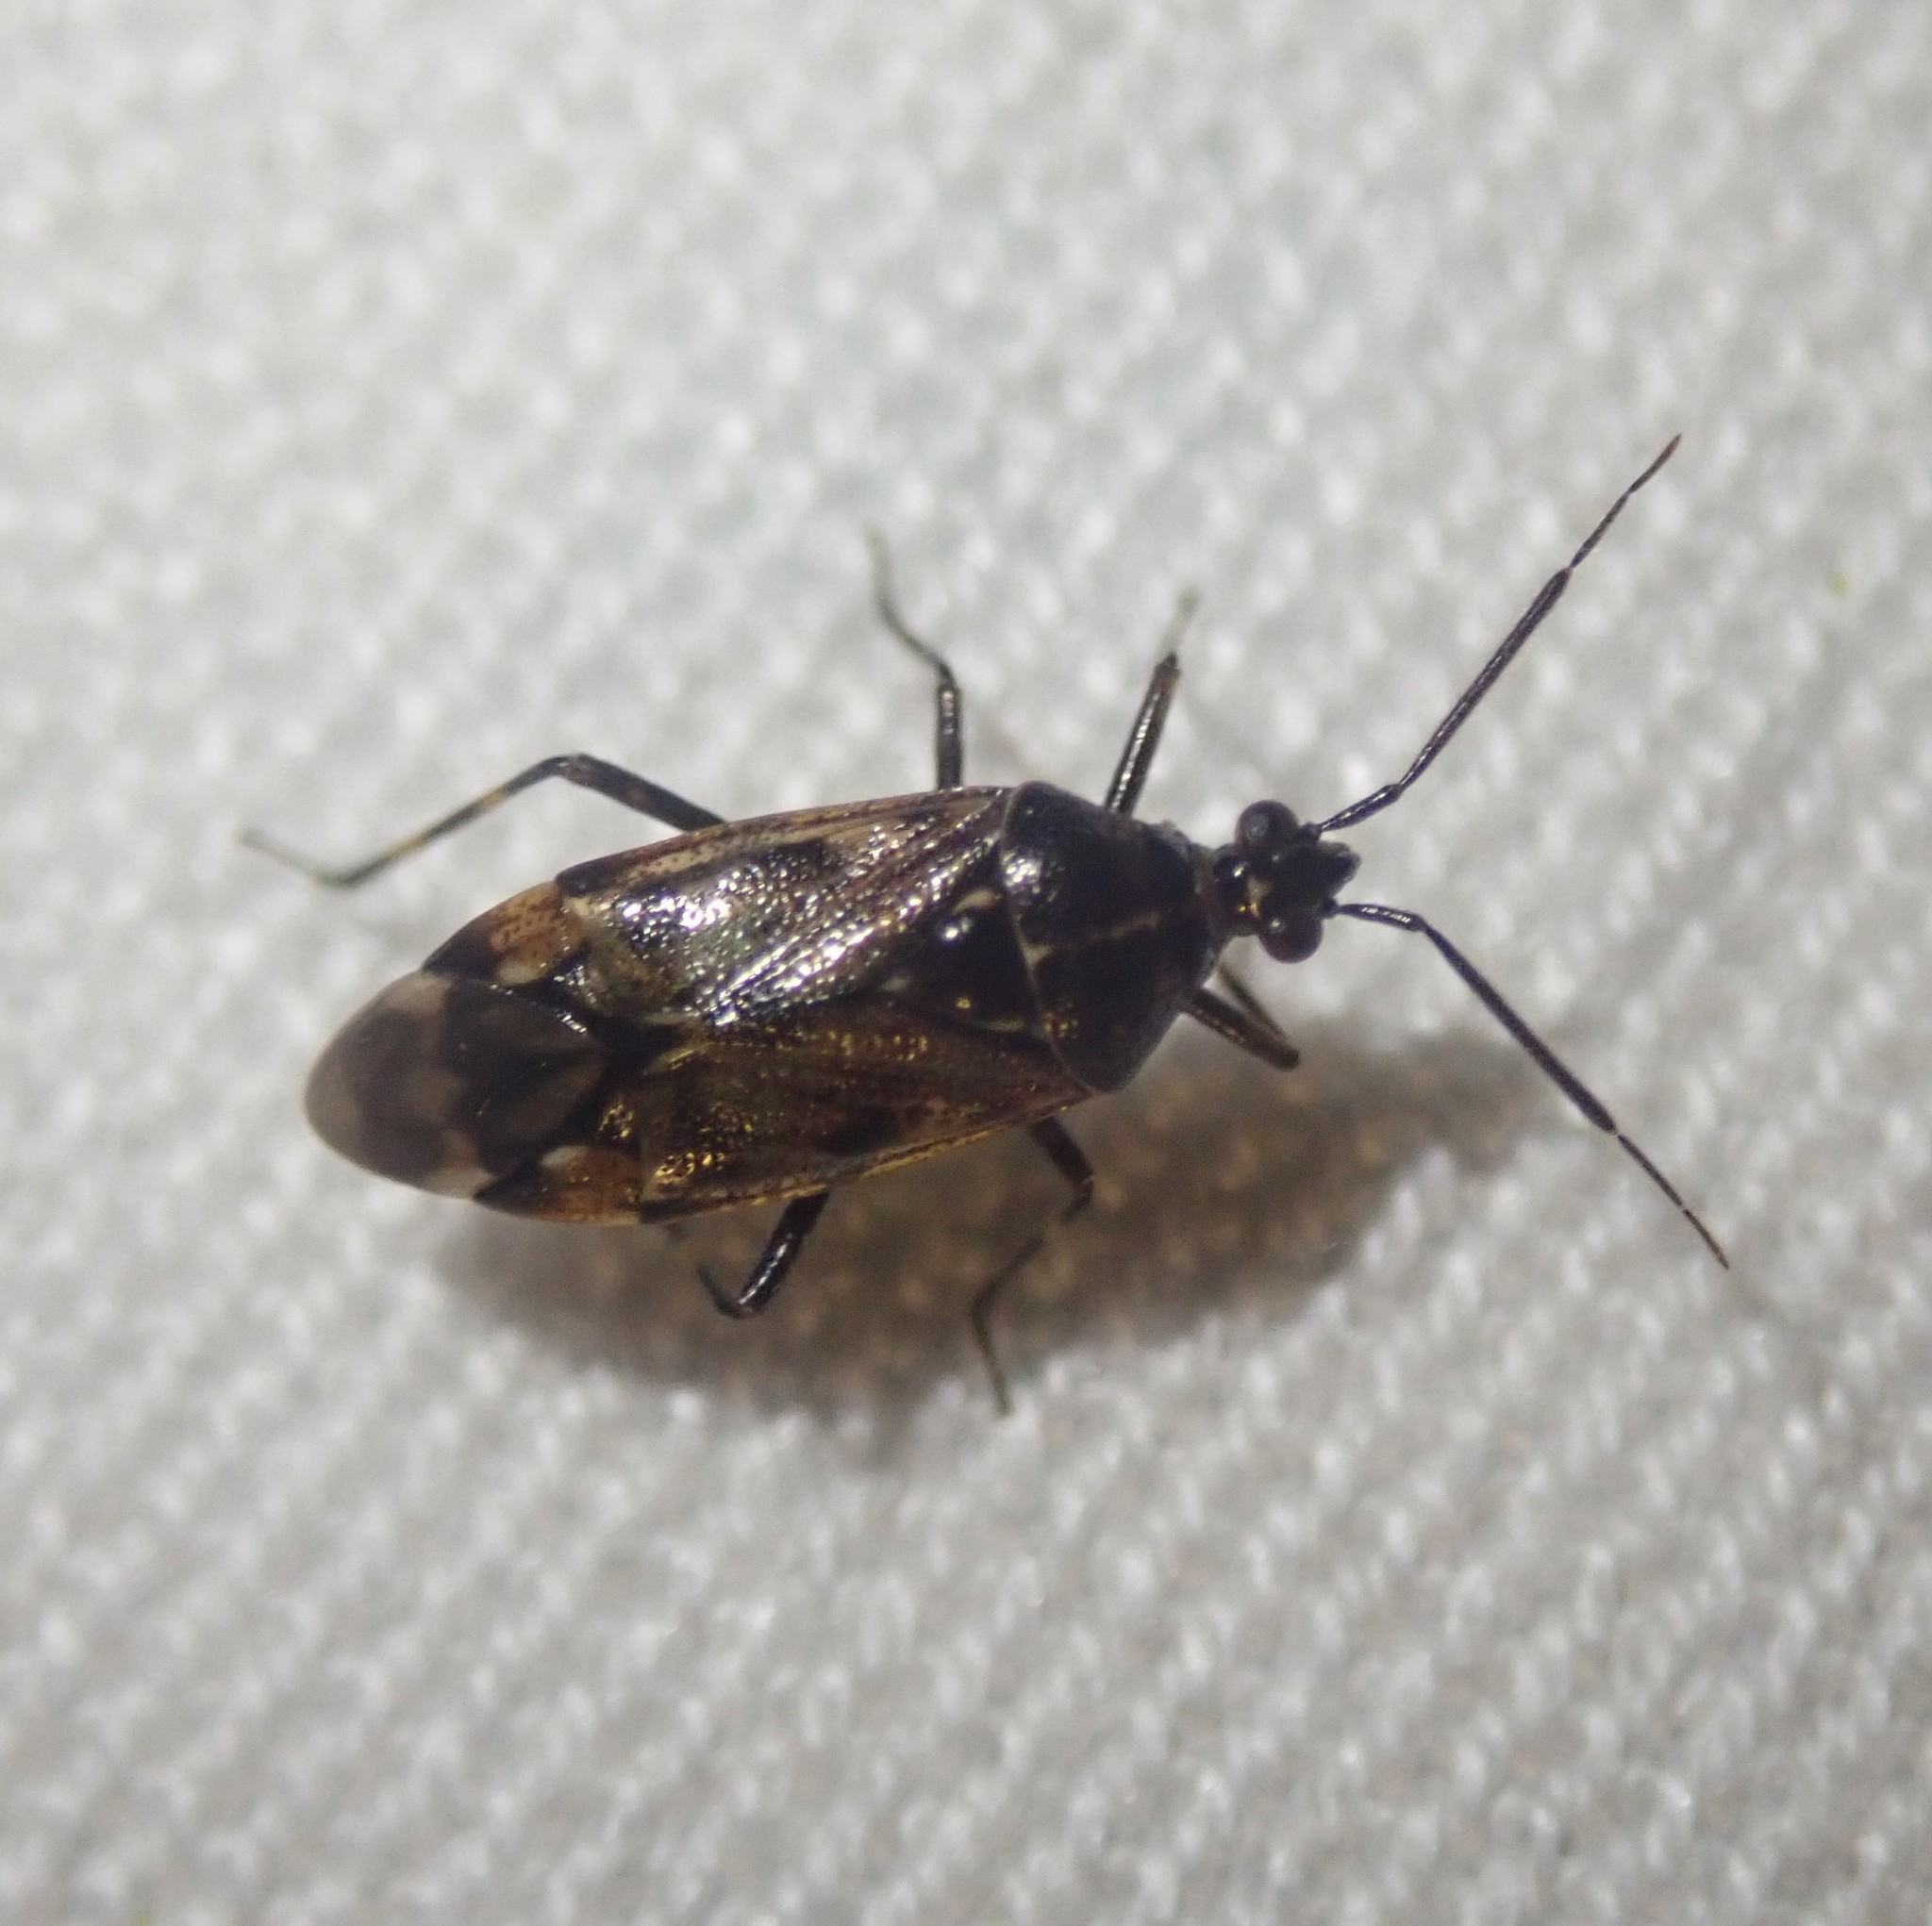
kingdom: Animalia
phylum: Arthropoda
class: Insecta
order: Hemiptera
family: Miridae
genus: Deraeocoris
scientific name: Deraeocoris annulipes
